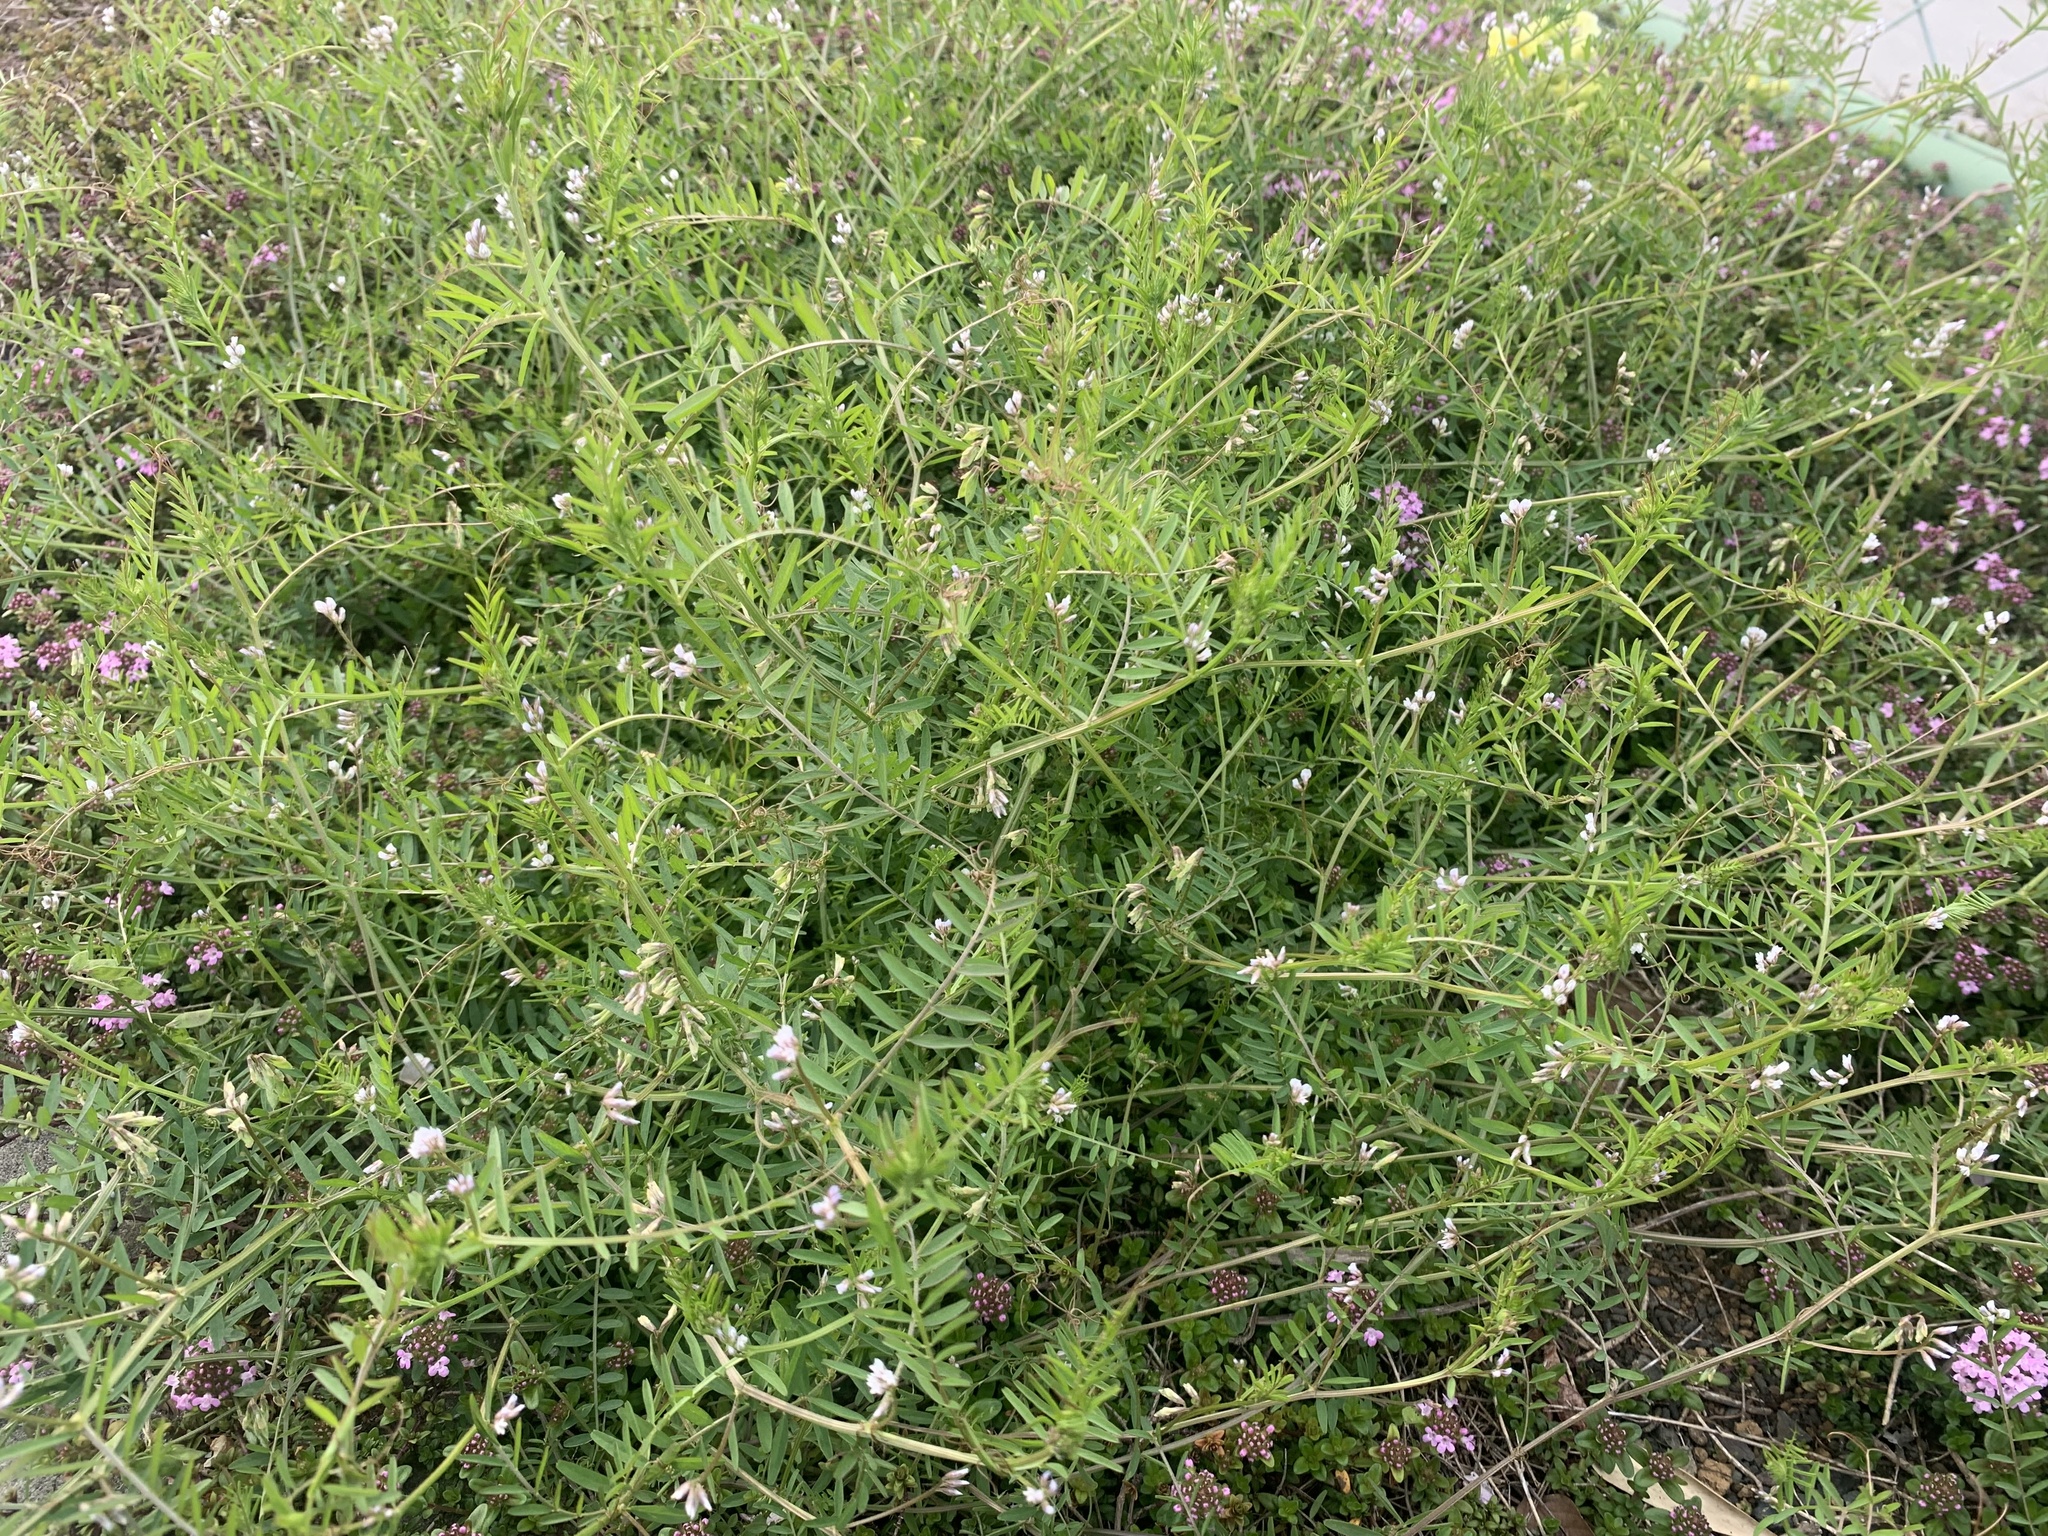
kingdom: Plantae
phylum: Tracheophyta
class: Magnoliopsida
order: Fabales
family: Fabaceae
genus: Vicia
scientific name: Vicia hirsuta
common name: Tiny vetch
